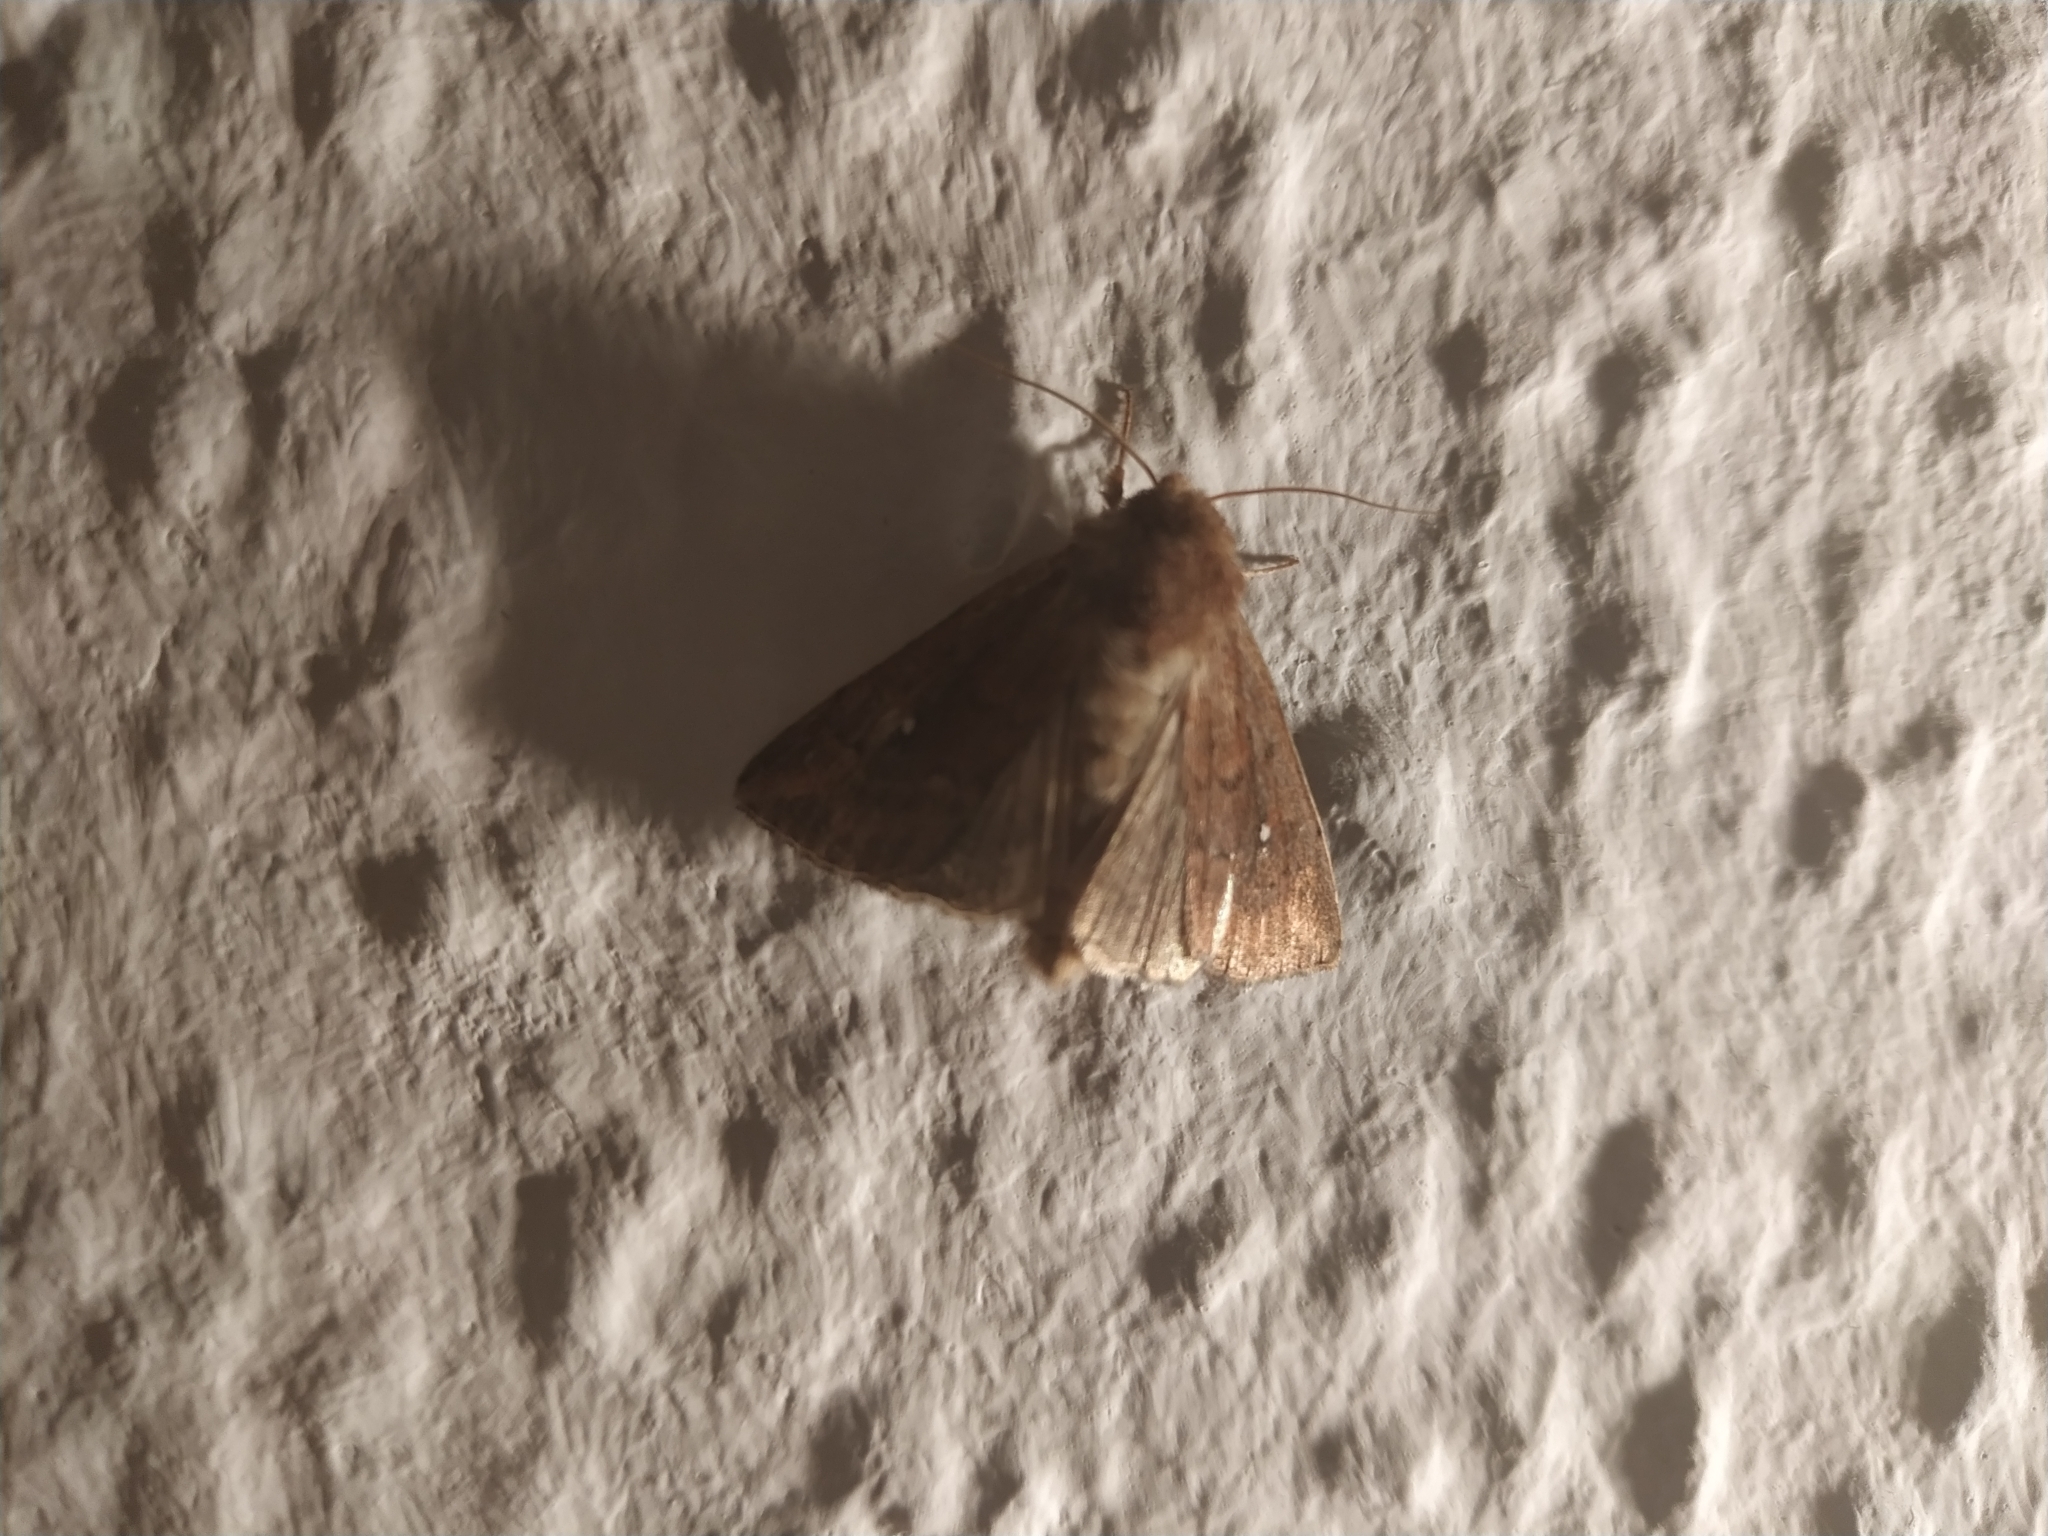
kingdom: Animalia
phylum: Arthropoda
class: Insecta
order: Lepidoptera
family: Noctuidae
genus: Mythimna
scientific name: Mythimna albipuncta
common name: White-point
